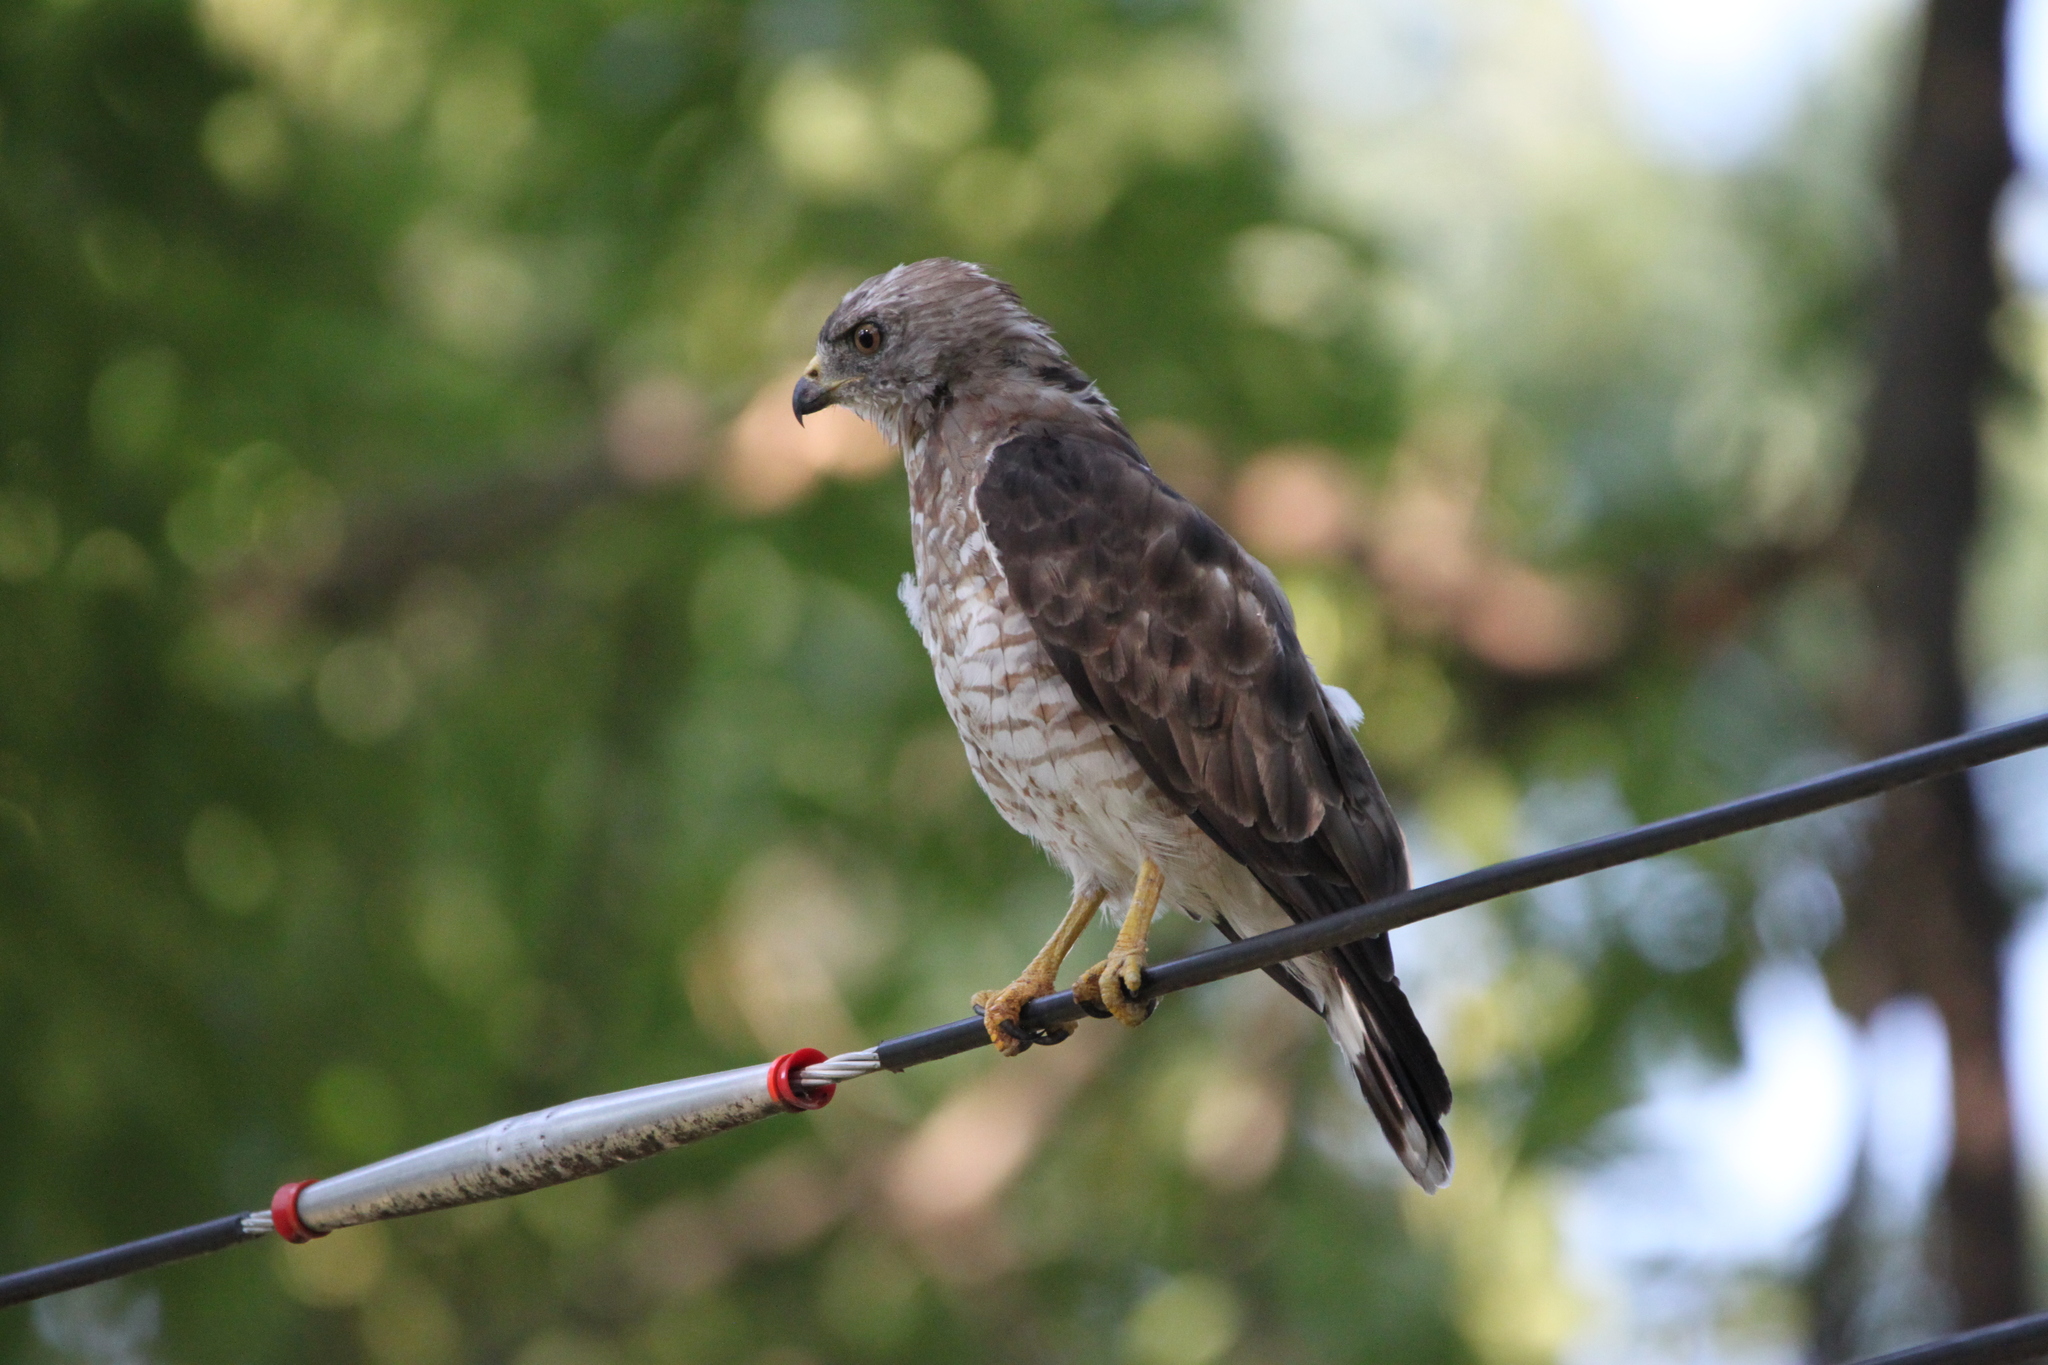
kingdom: Animalia
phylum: Chordata
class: Aves
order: Accipitriformes
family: Accipitridae
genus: Buteo
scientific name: Buteo platypterus
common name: Broad-winged hawk
